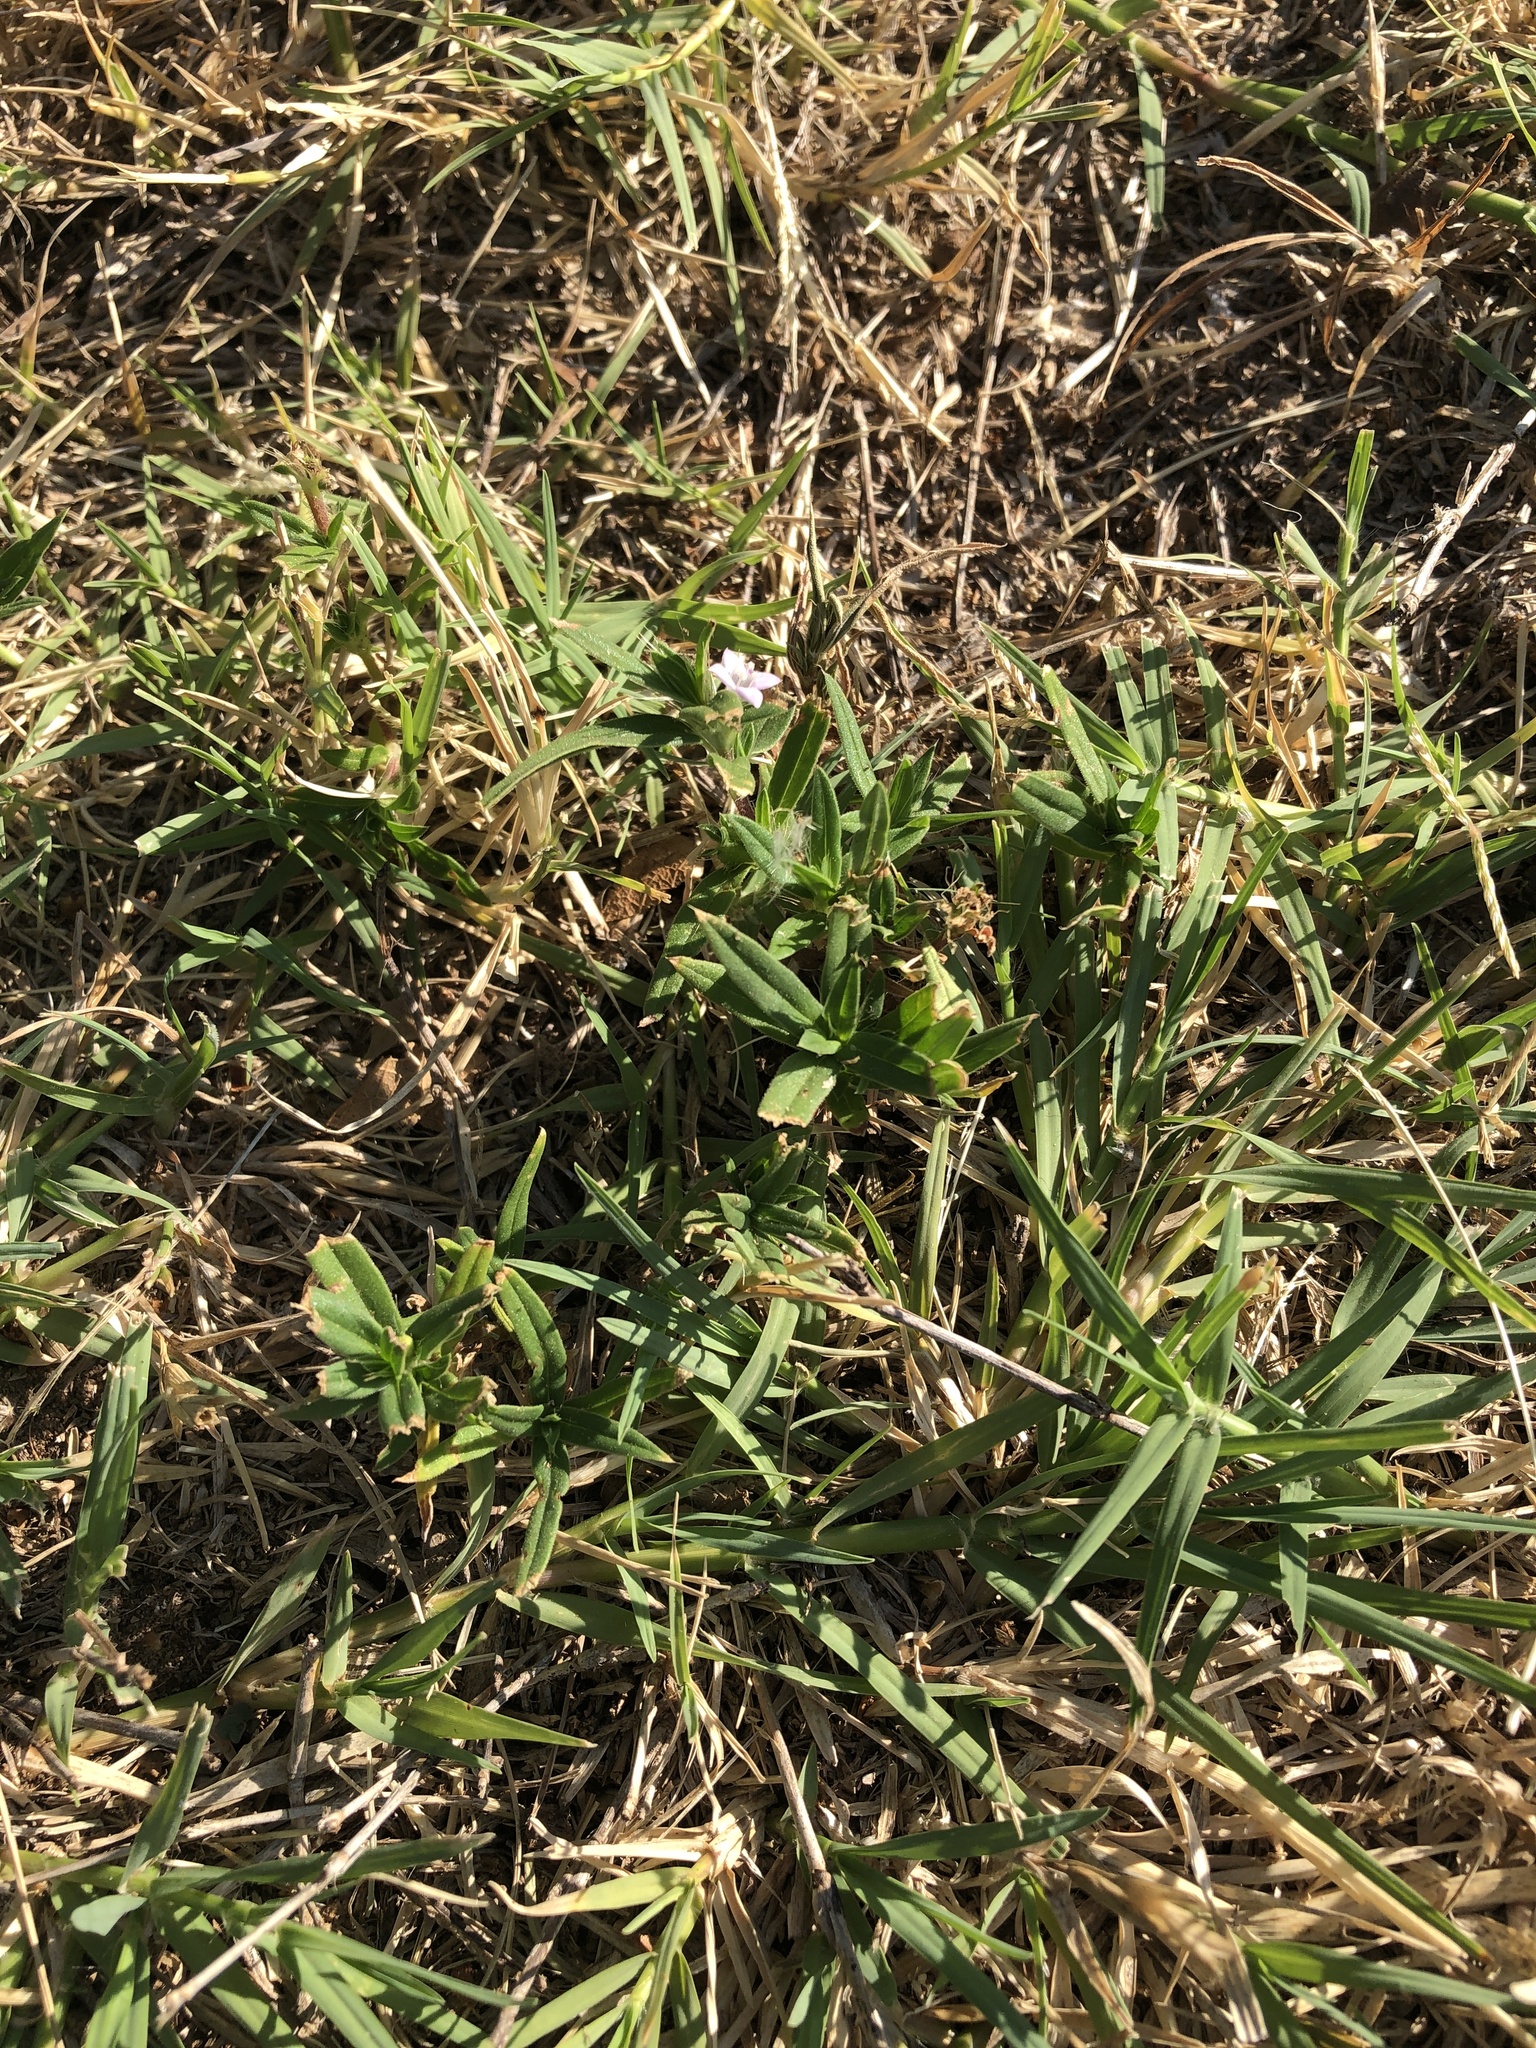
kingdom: Plantae
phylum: Tracheophyta
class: Magnoliopsida
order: Gentianales
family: Rubiaceae
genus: Hexasepalum
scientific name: Hexasepalum teres
